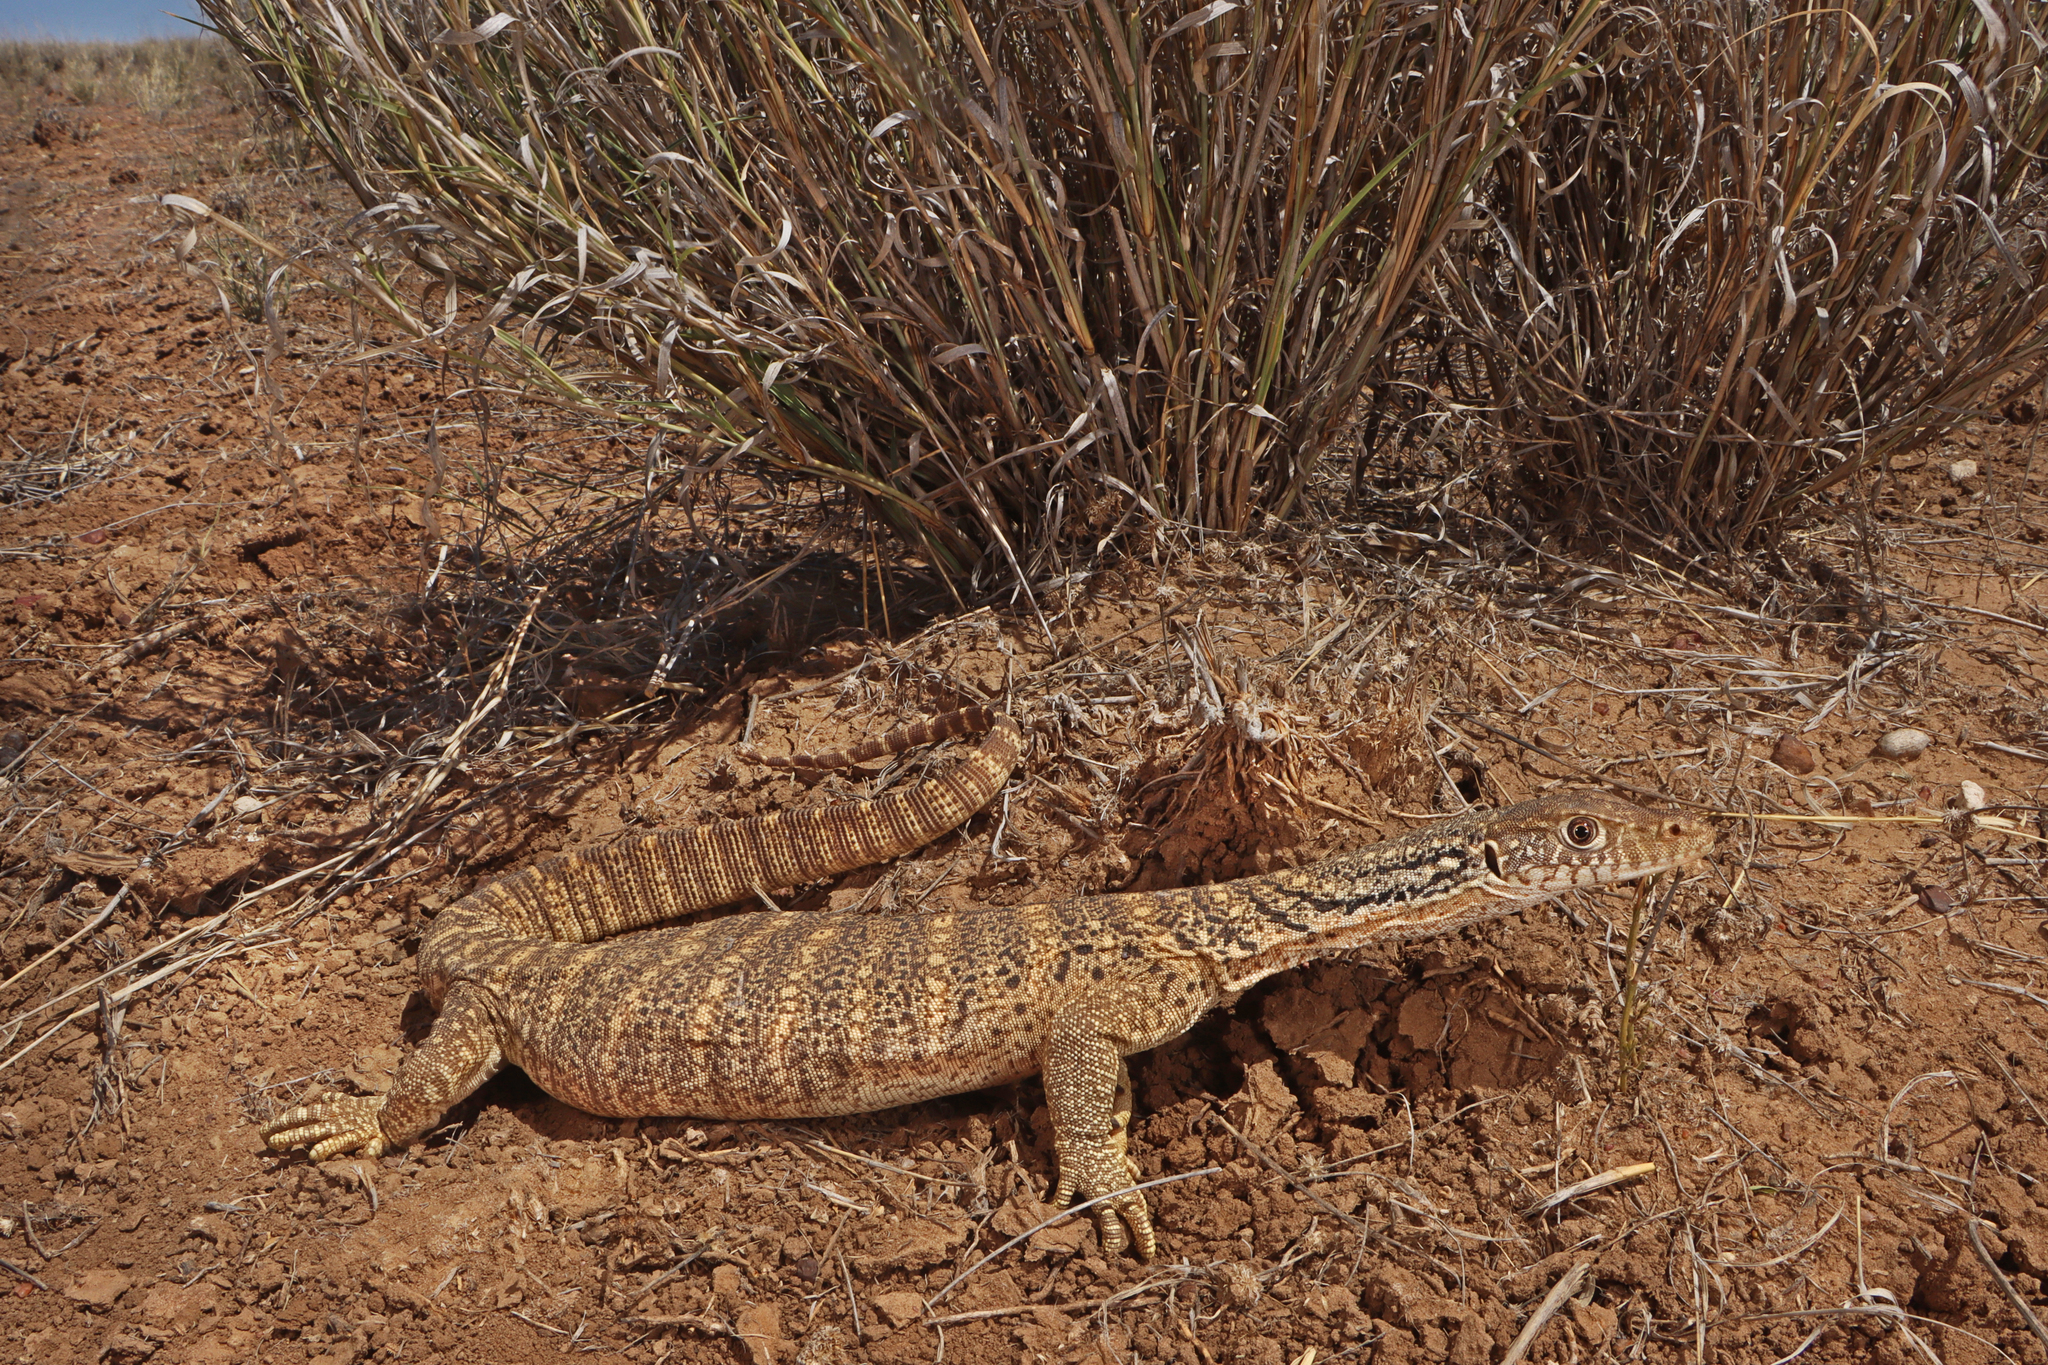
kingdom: Animalia
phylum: Chordata
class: Squamata
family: Varanidae
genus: Varanus
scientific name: Varanus spenceri
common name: Spencer's monitor
